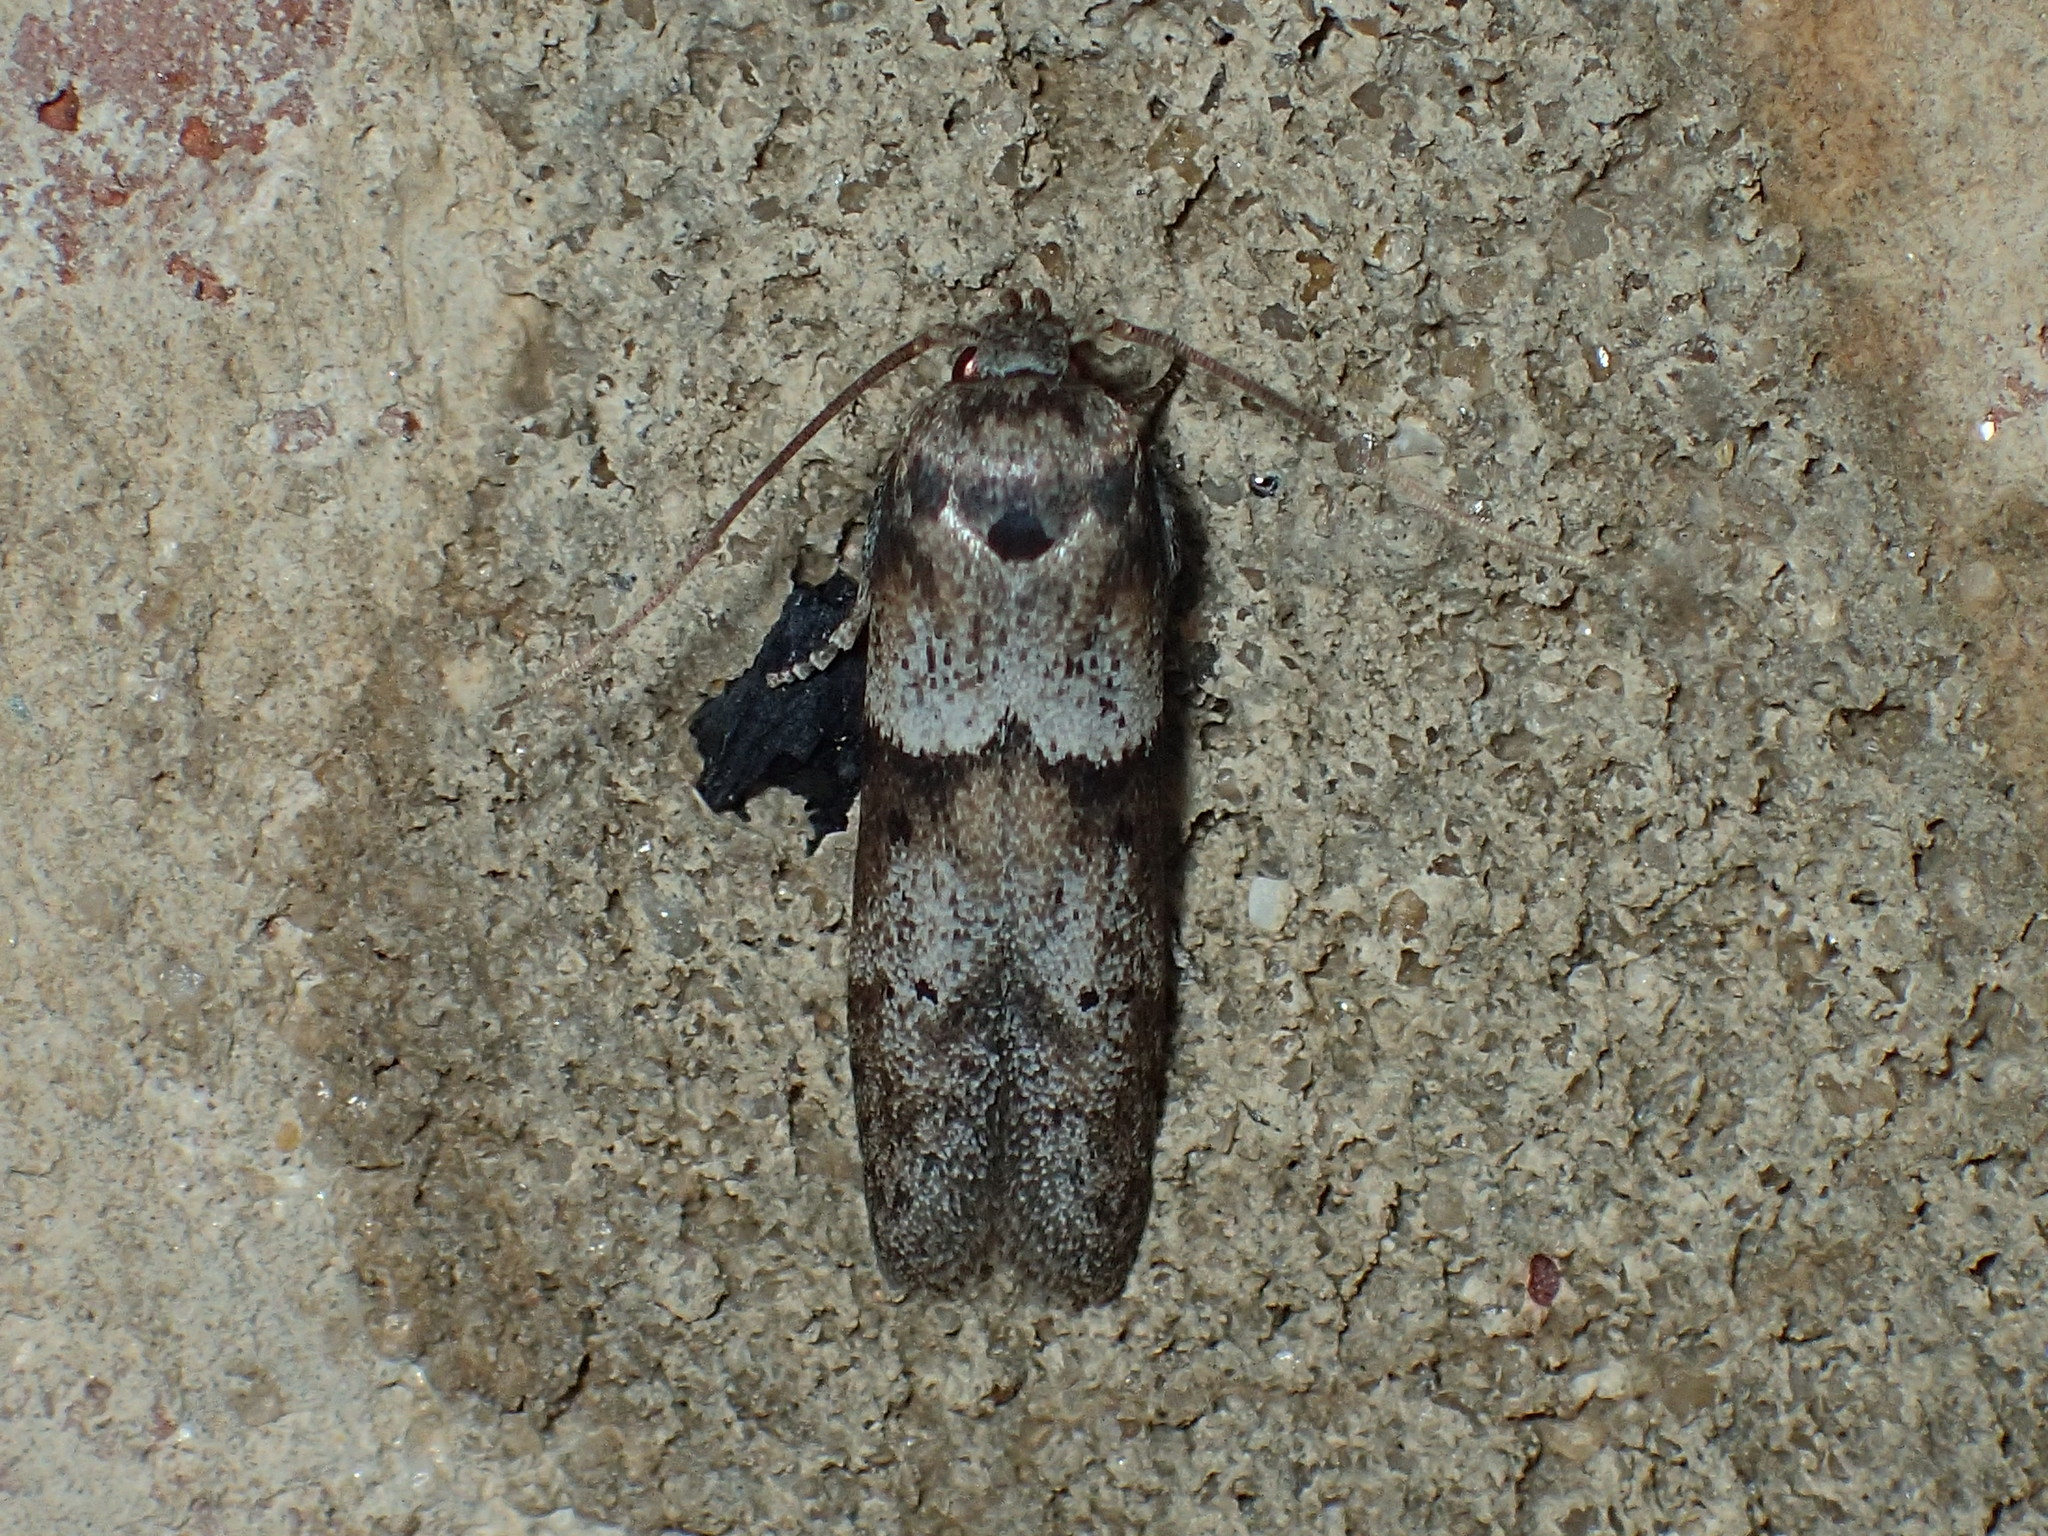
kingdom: Animalia
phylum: Arthropoda
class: Insecta
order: Lepidoptera
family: Blastobasidae
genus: Blastobasis
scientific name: Blastobasis glandulella
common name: Acorn moth
